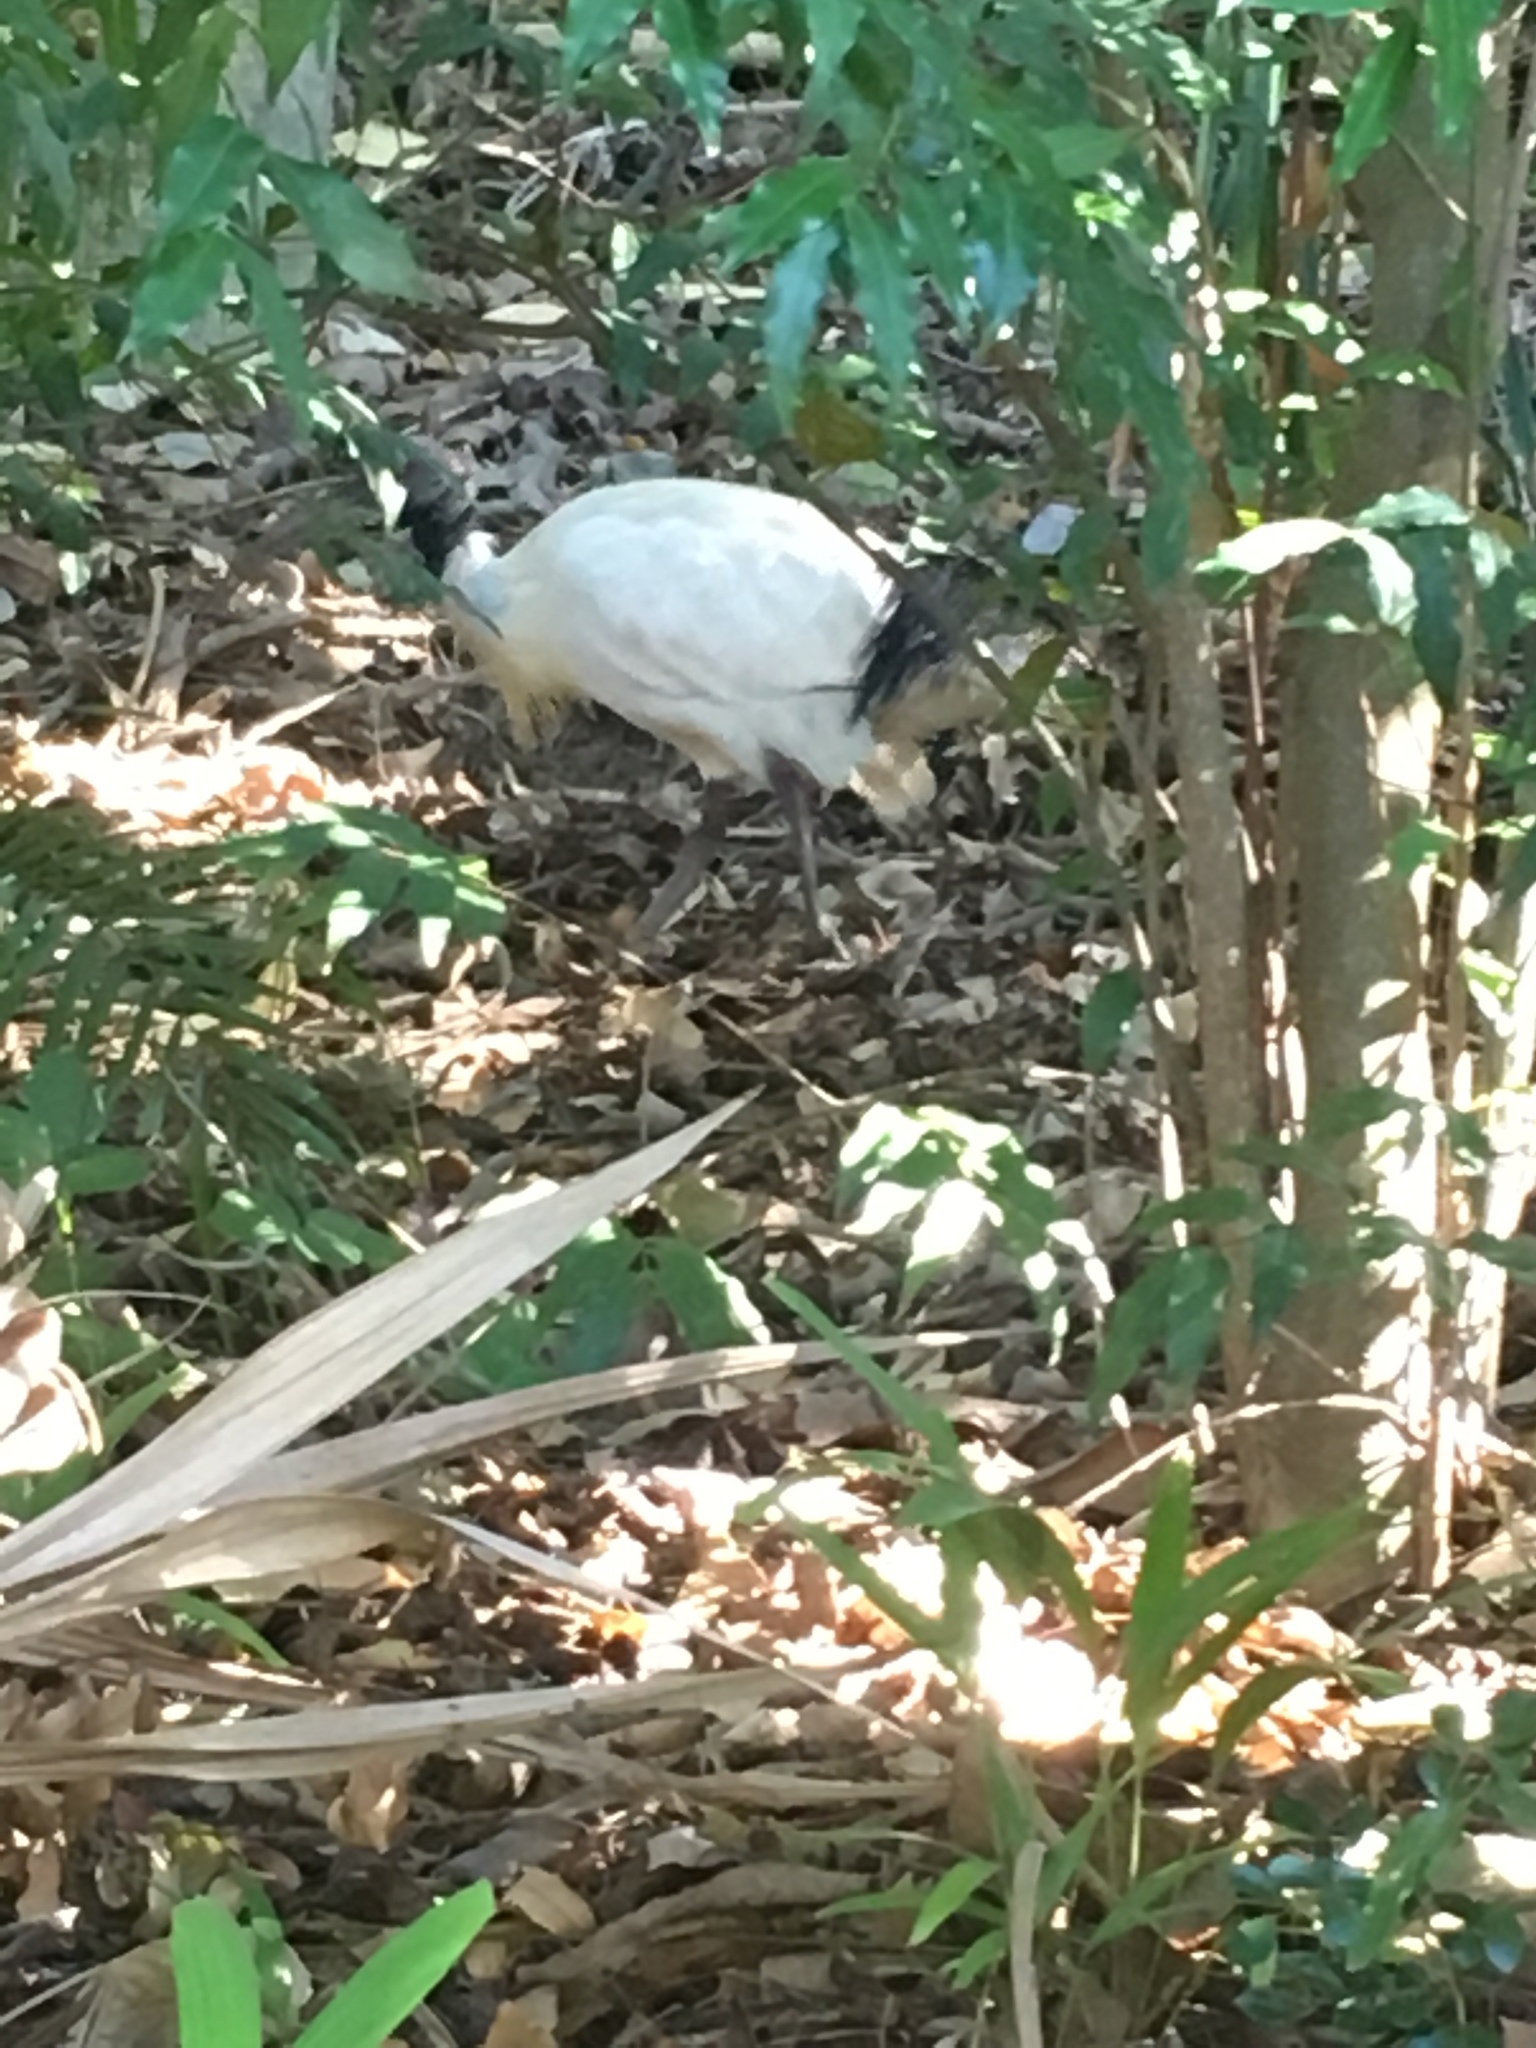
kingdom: Animalia
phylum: Chordata
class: Aves
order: Pelecaniformes
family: Threskiornithidae
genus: Threskiornis
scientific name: Threskiornis molucca
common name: Australian white ibis
